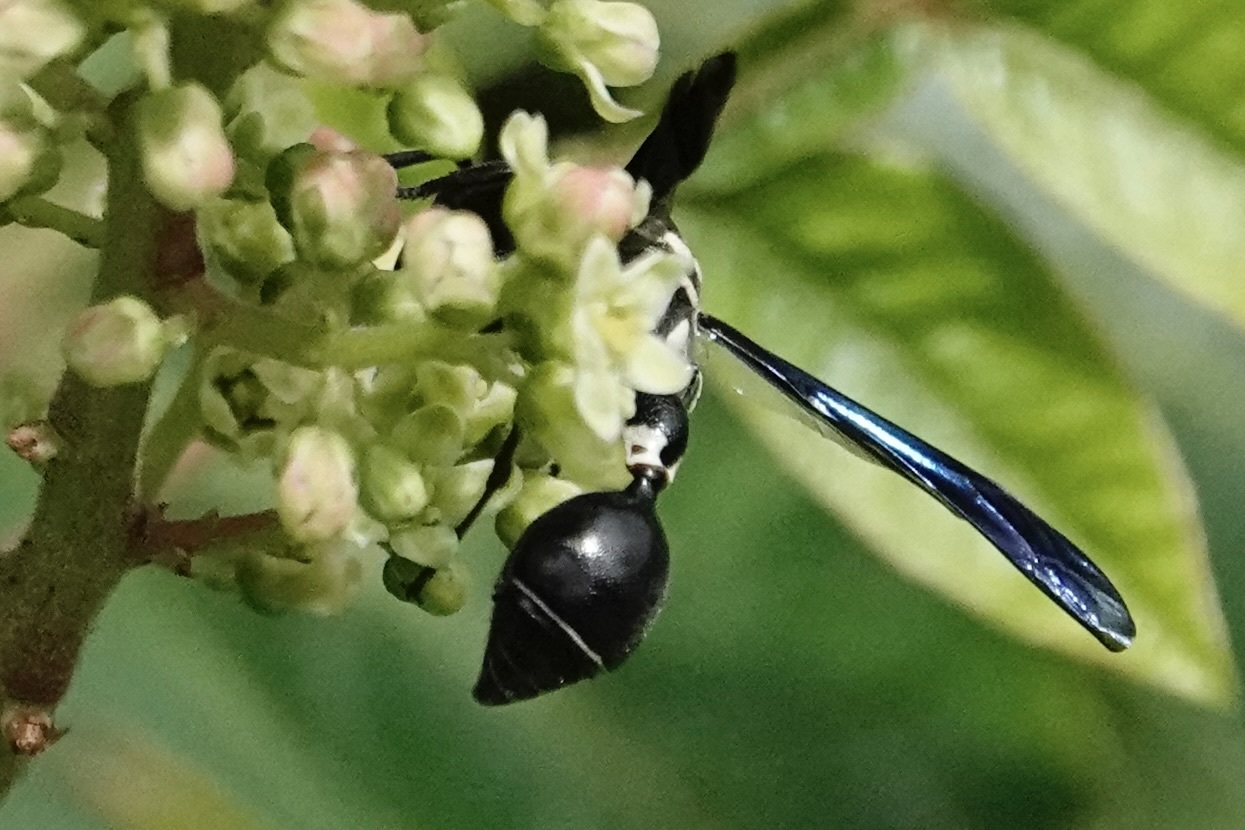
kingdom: Animalia
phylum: Arthropoda
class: Insecta
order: Hymenoptera
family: Eumenidae
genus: Zethus
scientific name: Zethus spinipes
